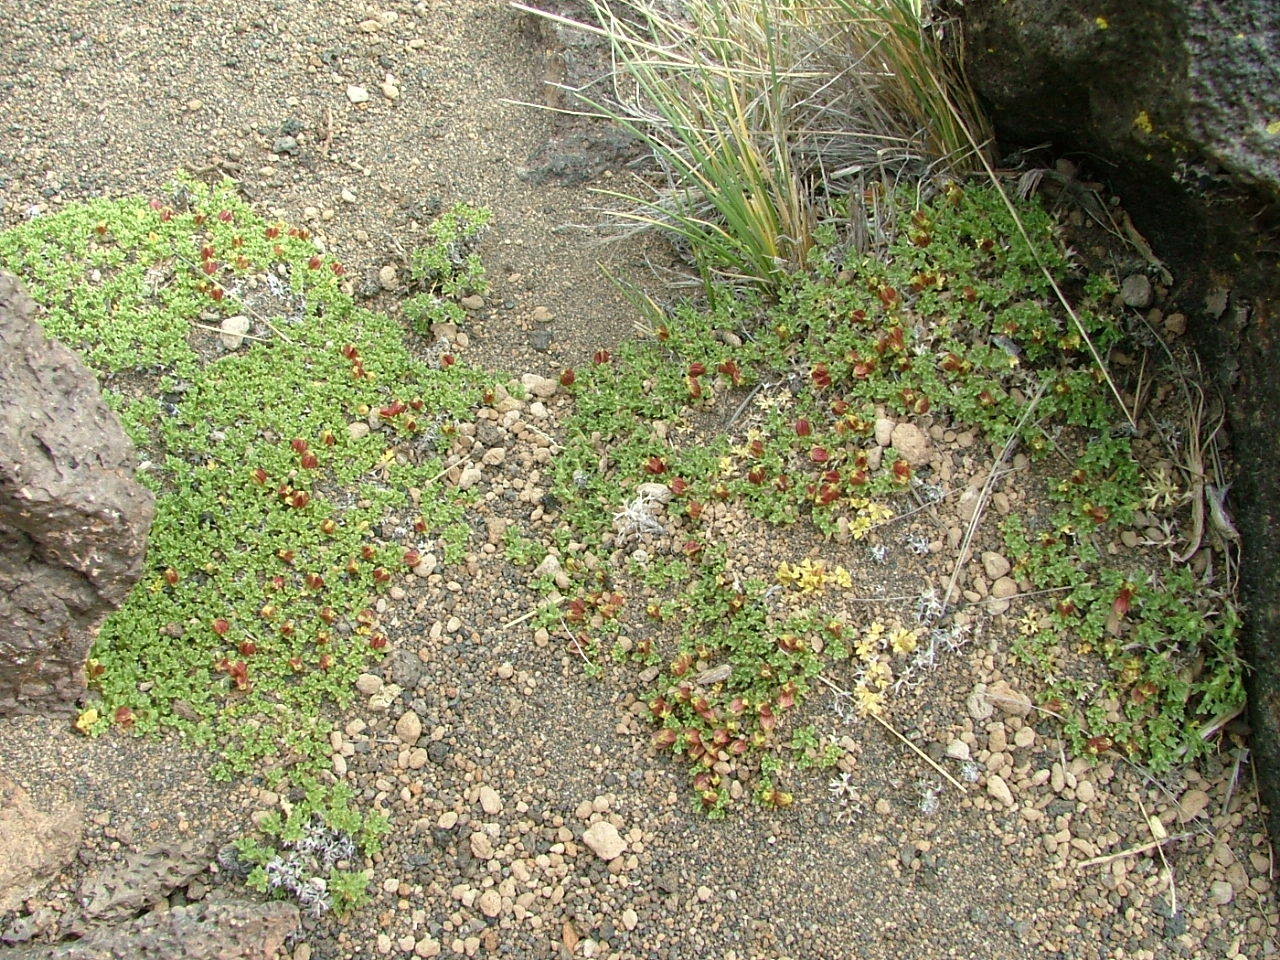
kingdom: Plantae
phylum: Tracheophyta
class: Magnoliopsida
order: Apiales
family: Apiaceae
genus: Azorella
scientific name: Azorella hallei
